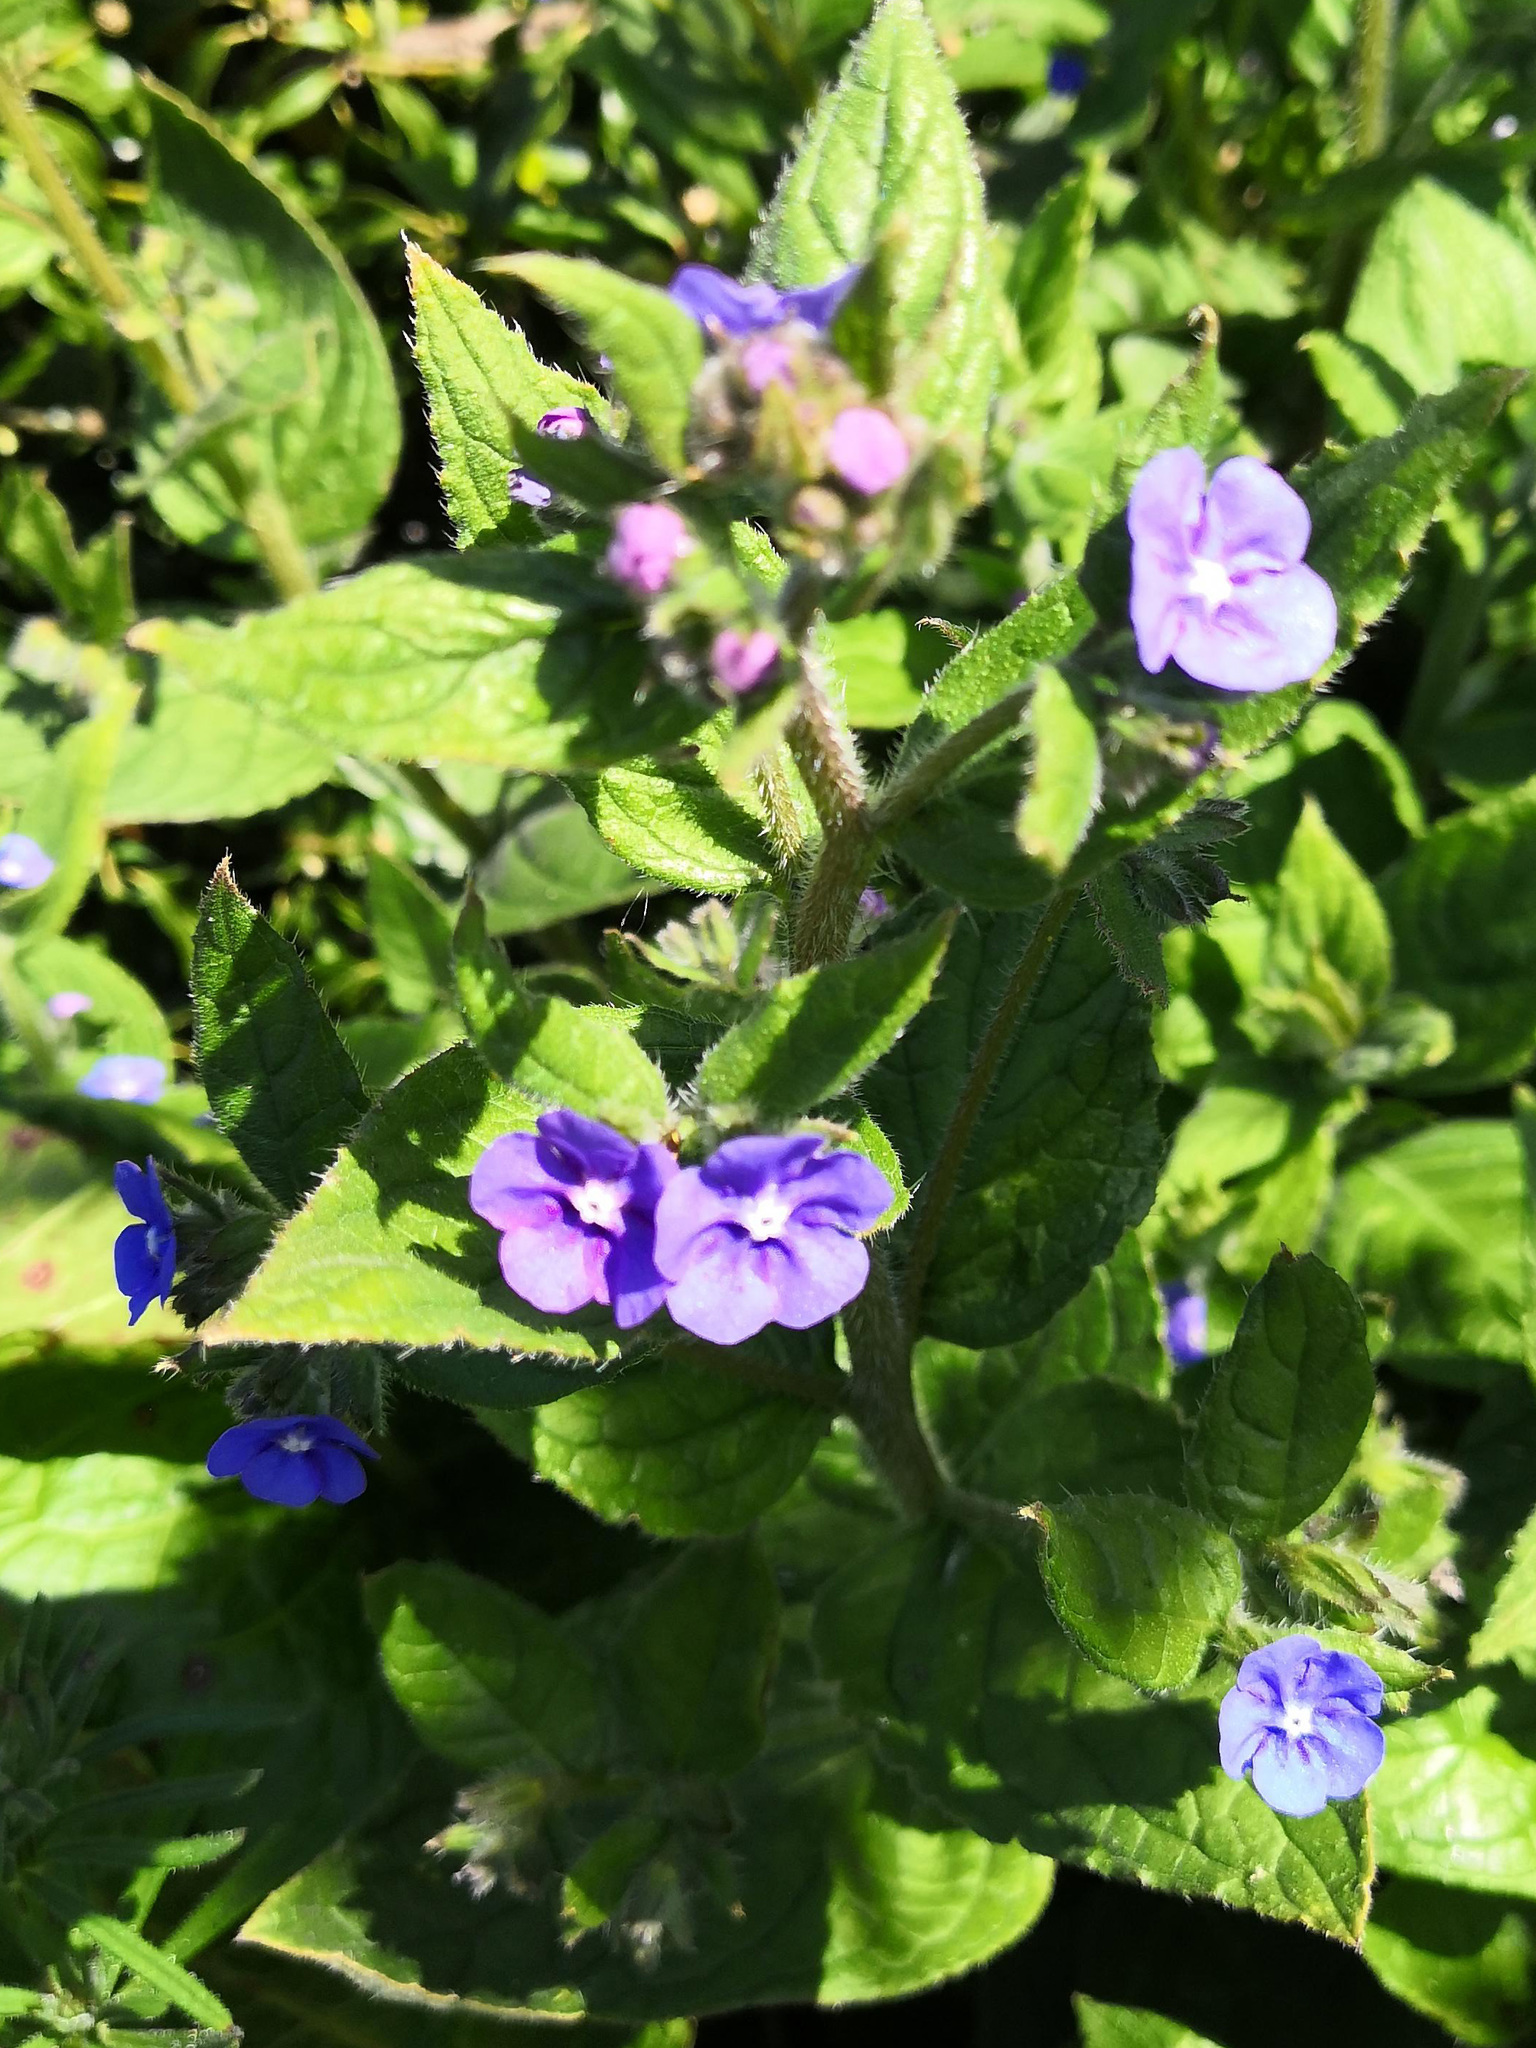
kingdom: Plantae
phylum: Tracheophyta
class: Magnoliopsida
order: Boraginales
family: Boraginaceae
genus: Pentaglottis
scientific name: Pentaglottis sempervirens
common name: Green alkanet
